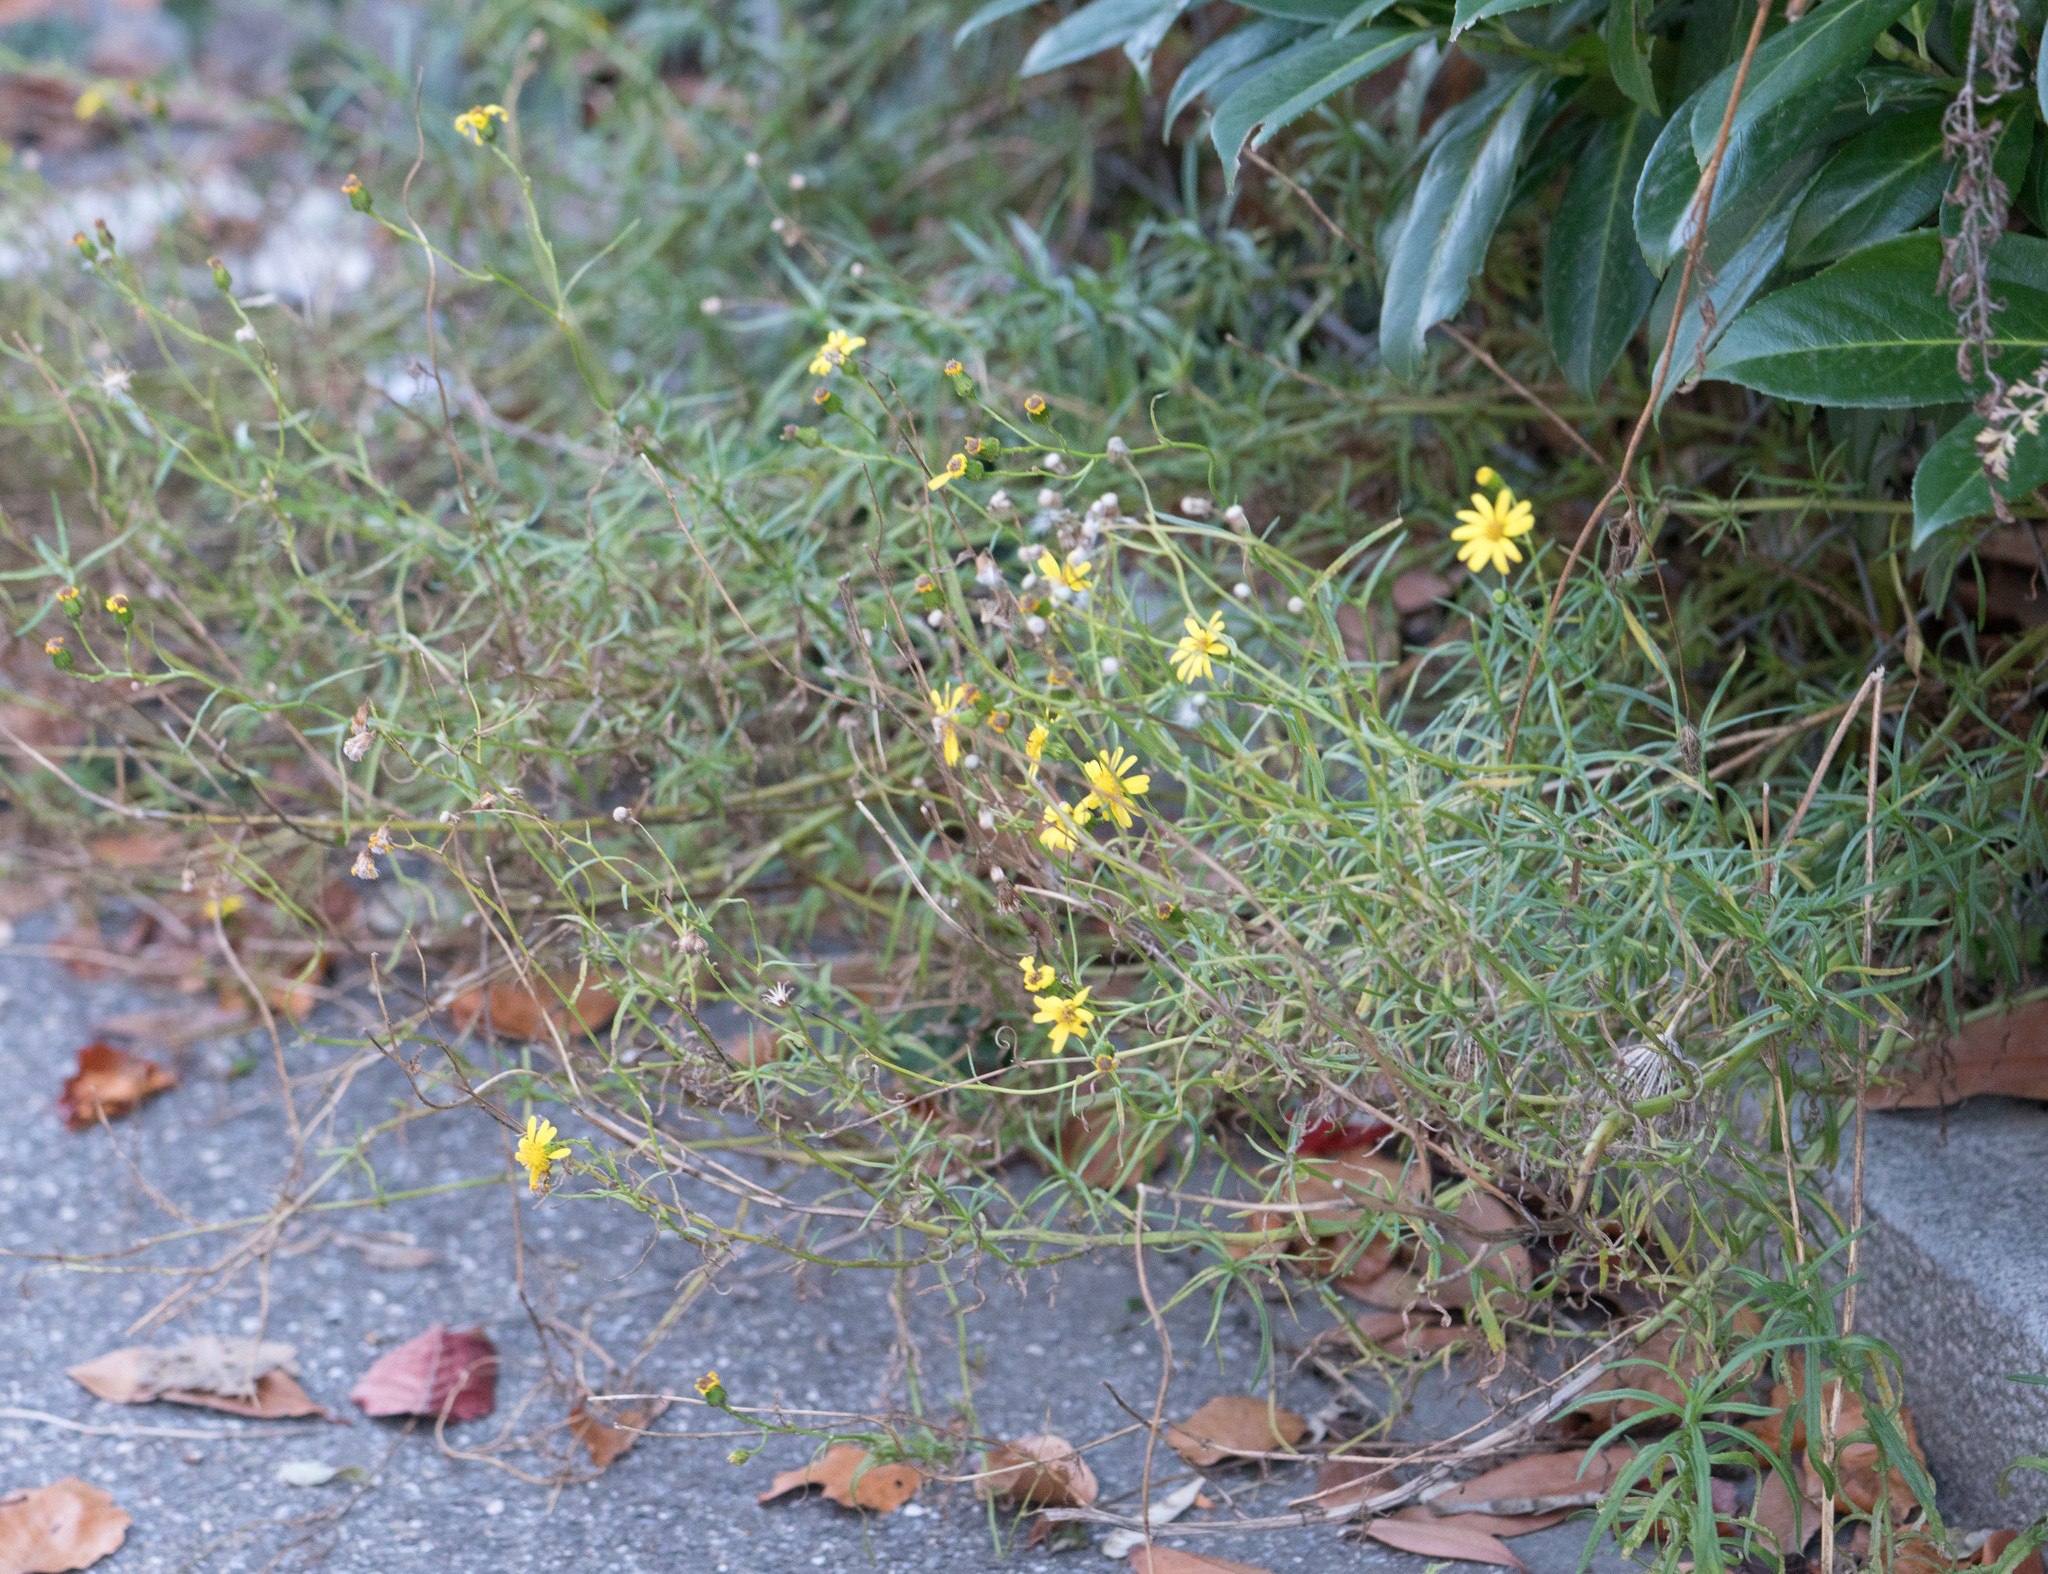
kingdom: Plantae
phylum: Tracheophyta
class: Magnoliopsida
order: Asterales
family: Asteraceae
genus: Senecio
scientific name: Senecio inaequidens
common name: Narrow-leaved ragwort
